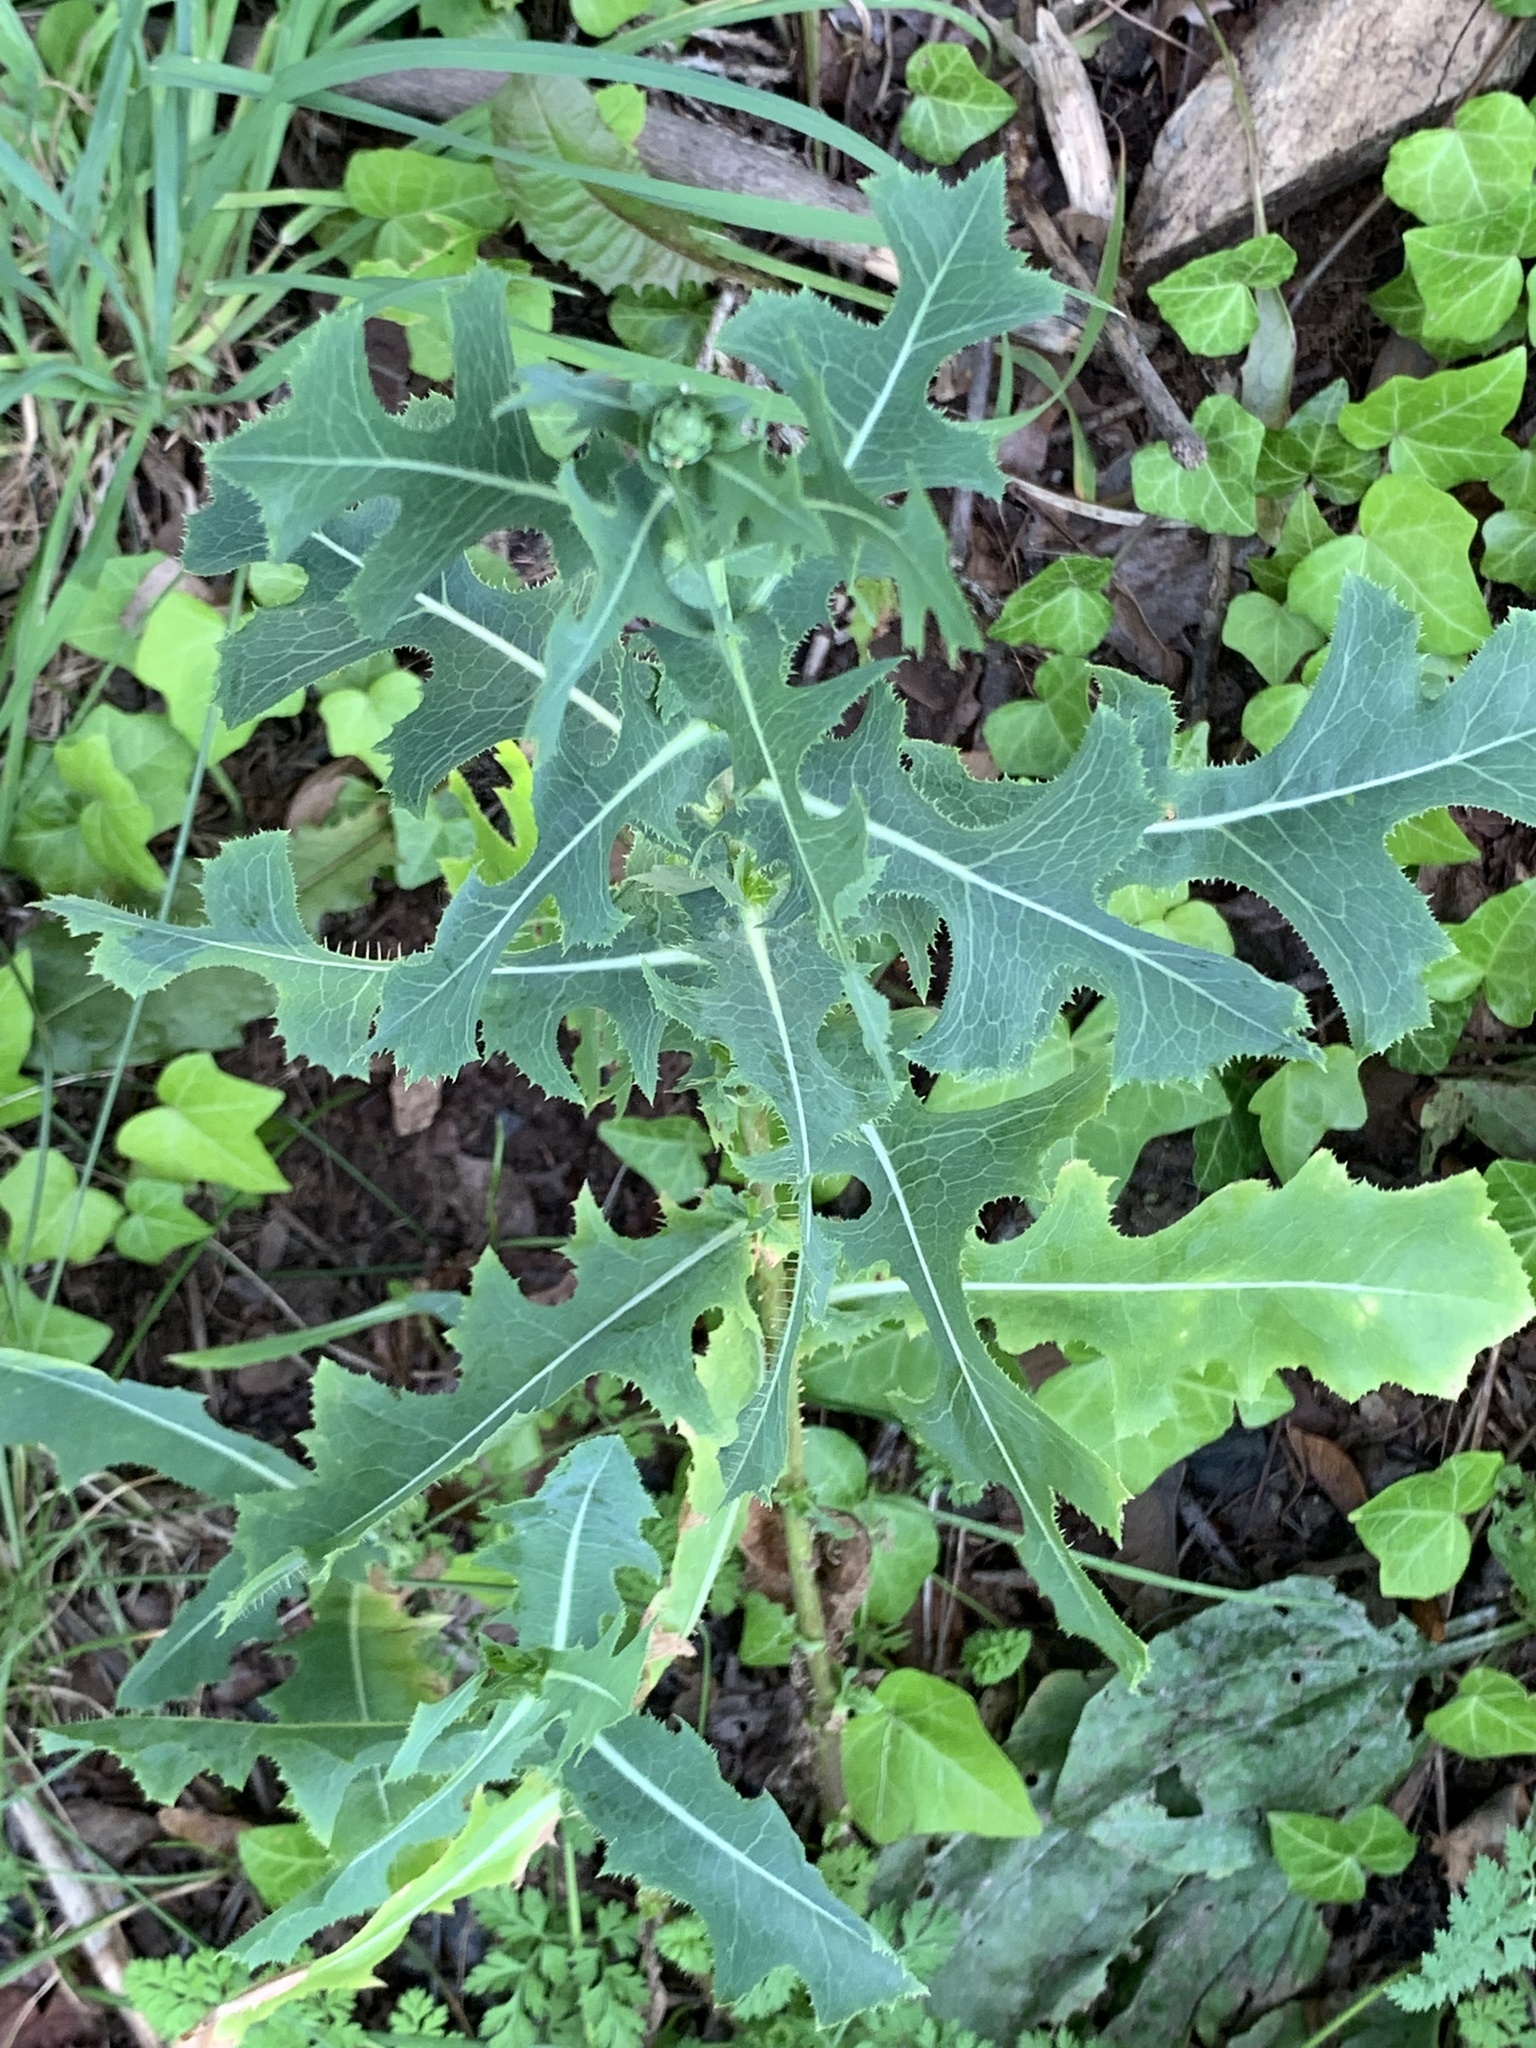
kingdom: Plantae
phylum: Tracheophyta
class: Magnoliopsida
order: Asterales
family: Asteraceae
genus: Lactuca
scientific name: Lactuca serriola
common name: Prickly lettuce
